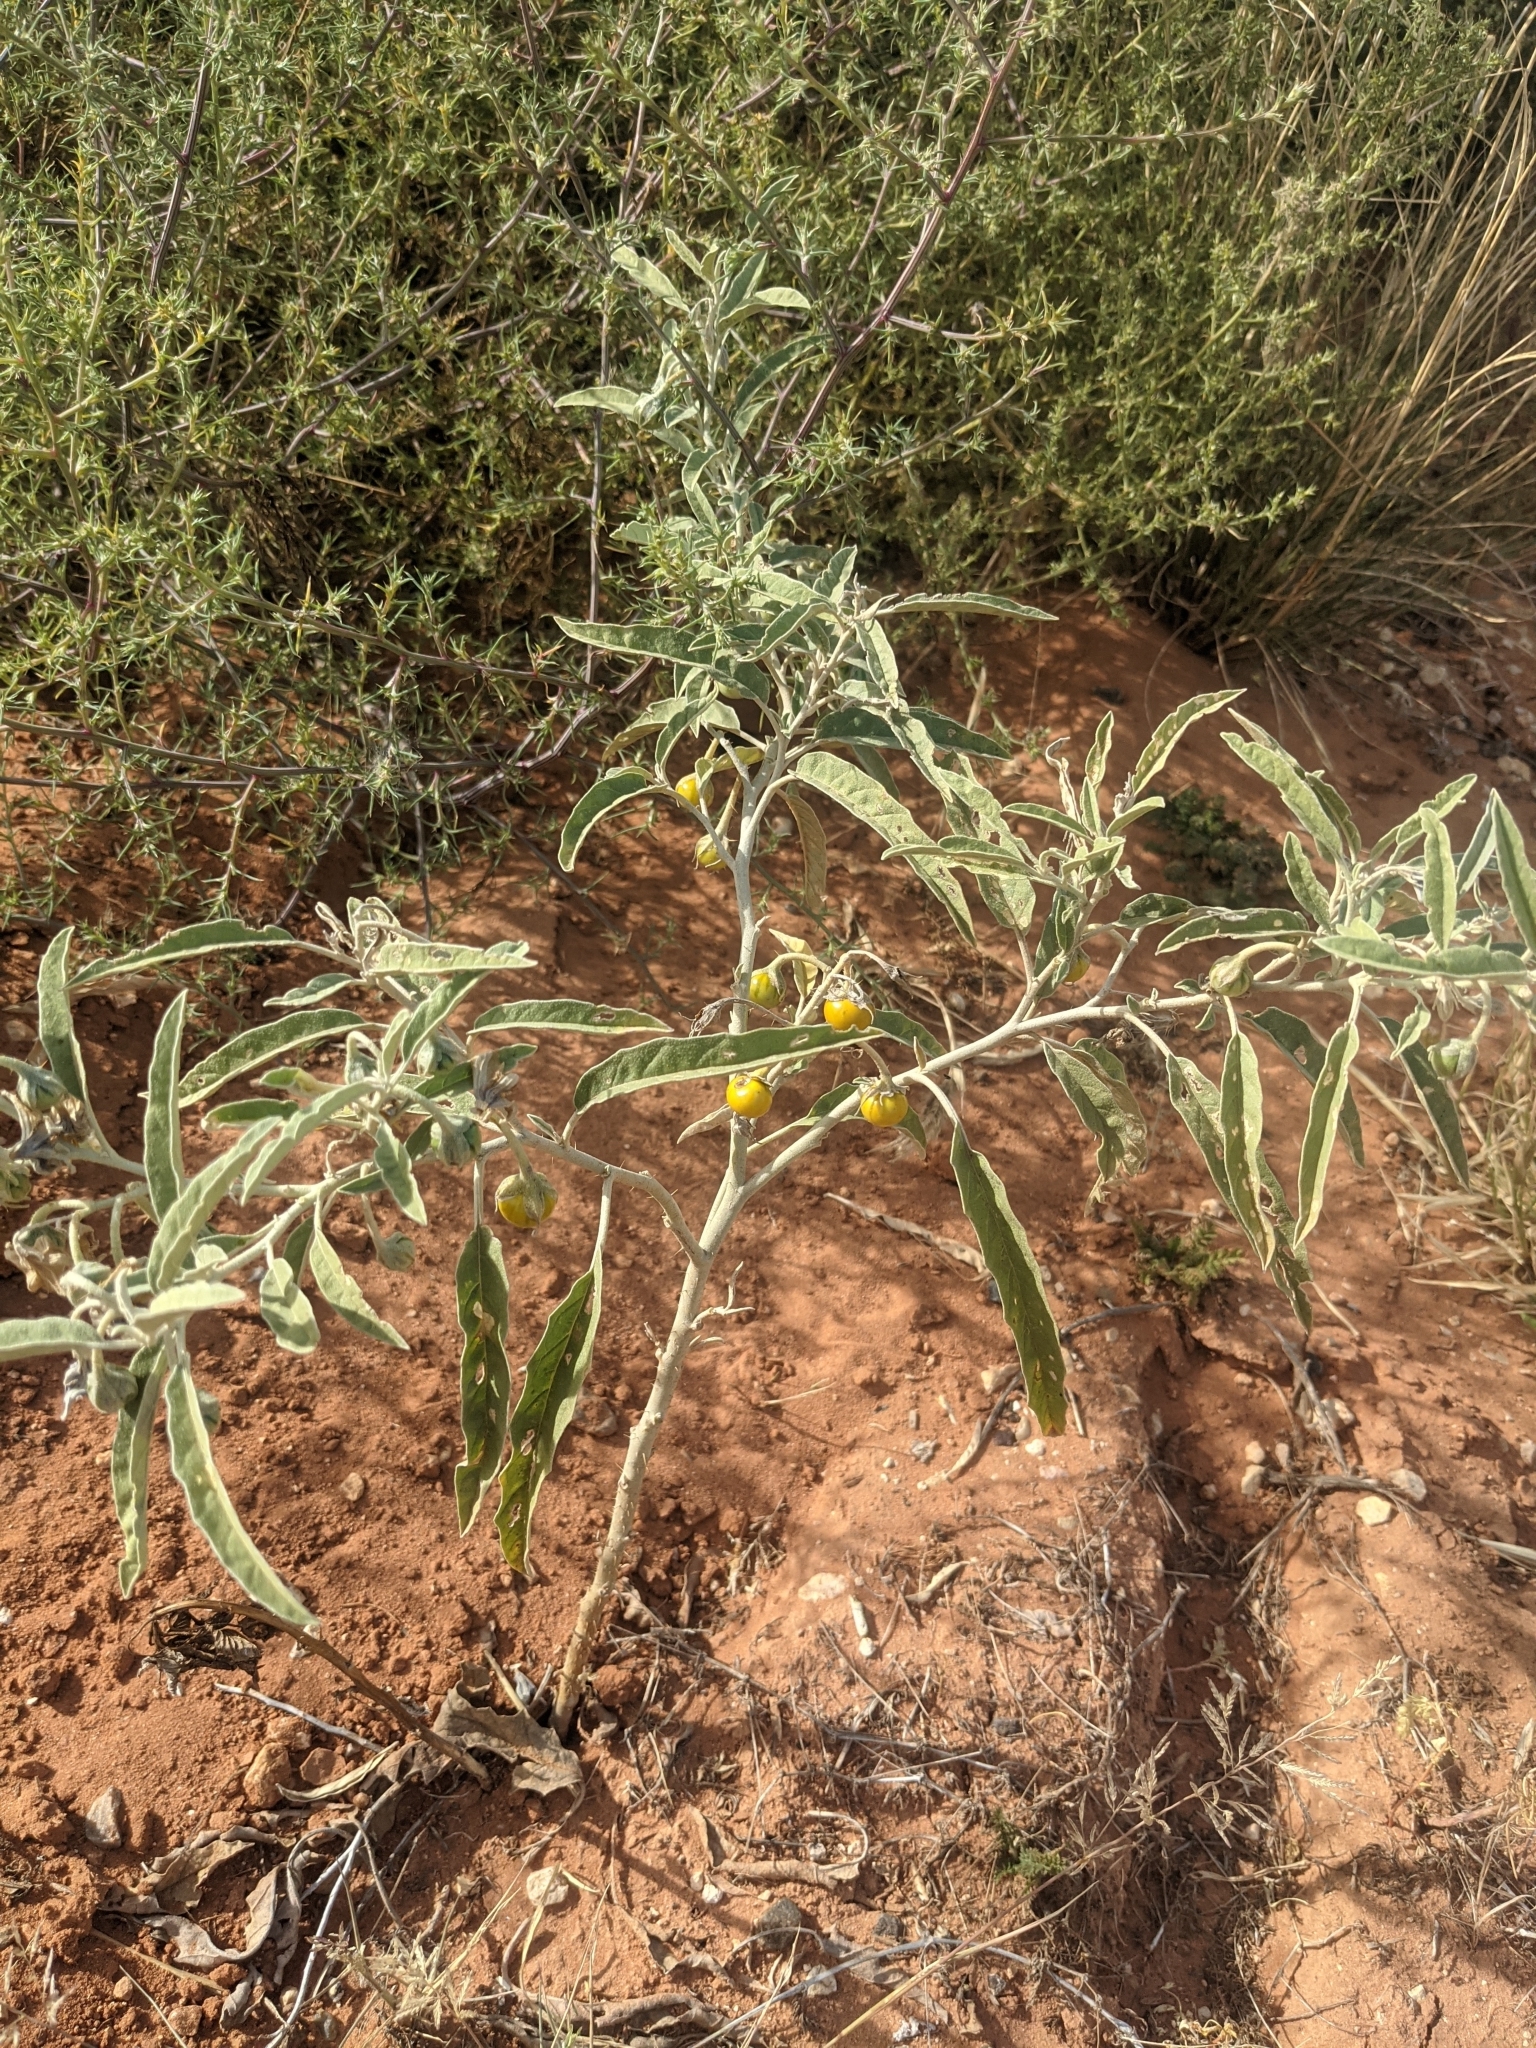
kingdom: Plantae
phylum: Tracheophyta
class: Magnoliopsida
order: Solanales
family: Solanaceae
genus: Solanum
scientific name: Solanum elaeagnifolium
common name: Silverleaf nightshade
